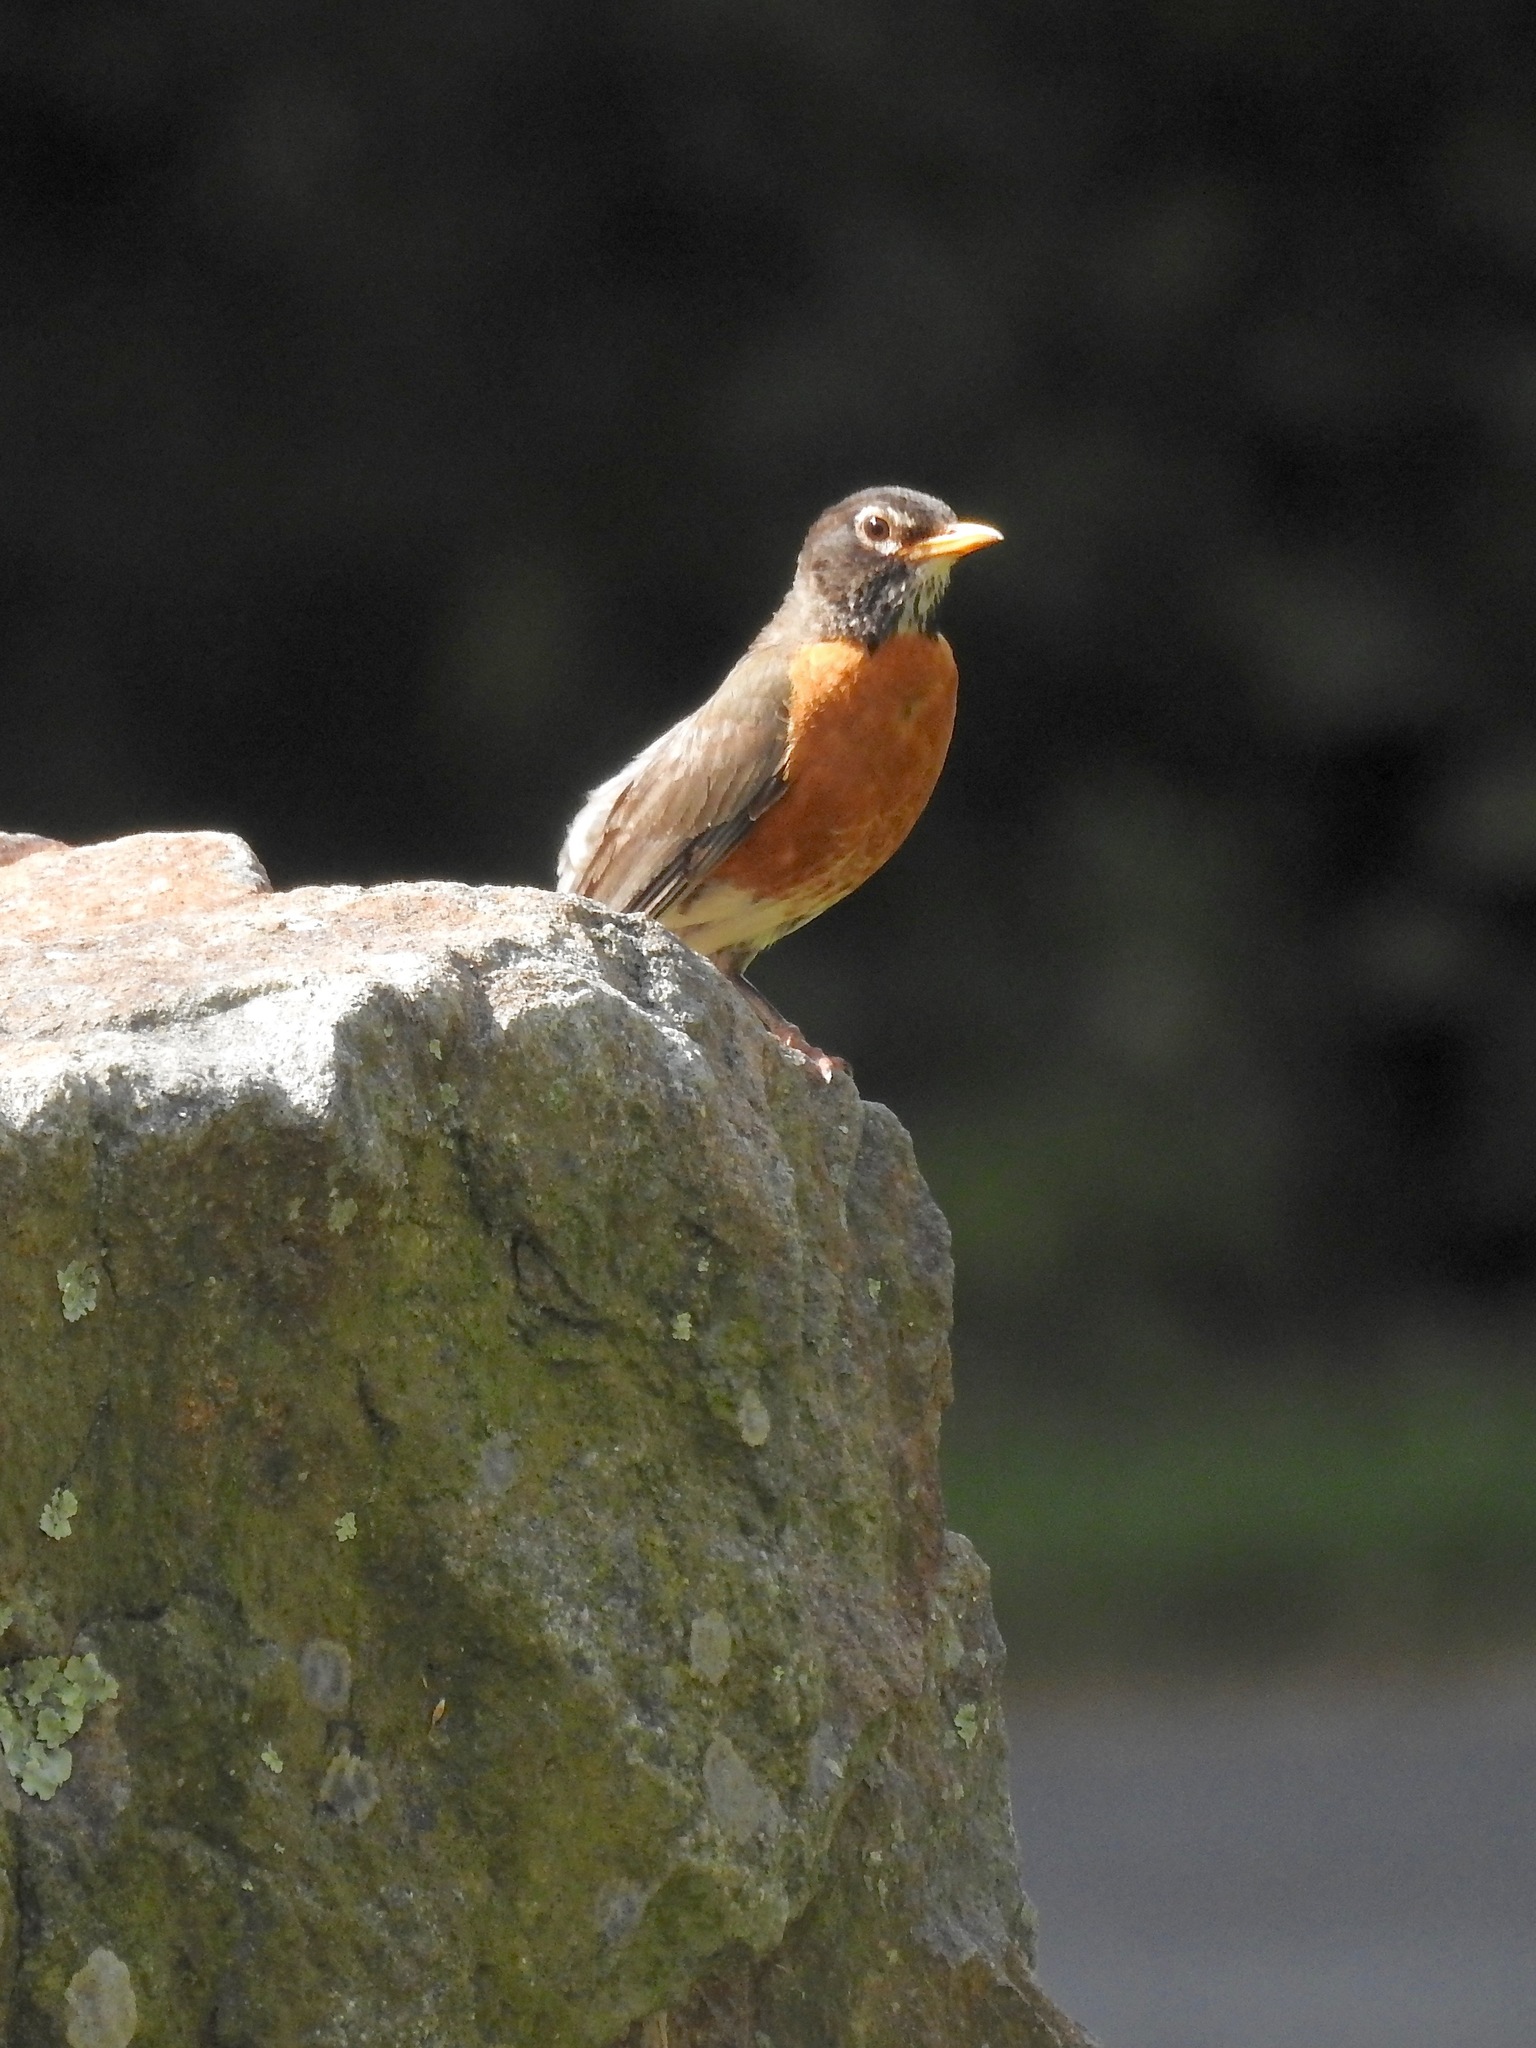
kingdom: Animalia
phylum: Chordata
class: Aves
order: Passeriformes
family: Turdidae
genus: Turdus
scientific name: Turdus migratorius
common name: American robin
